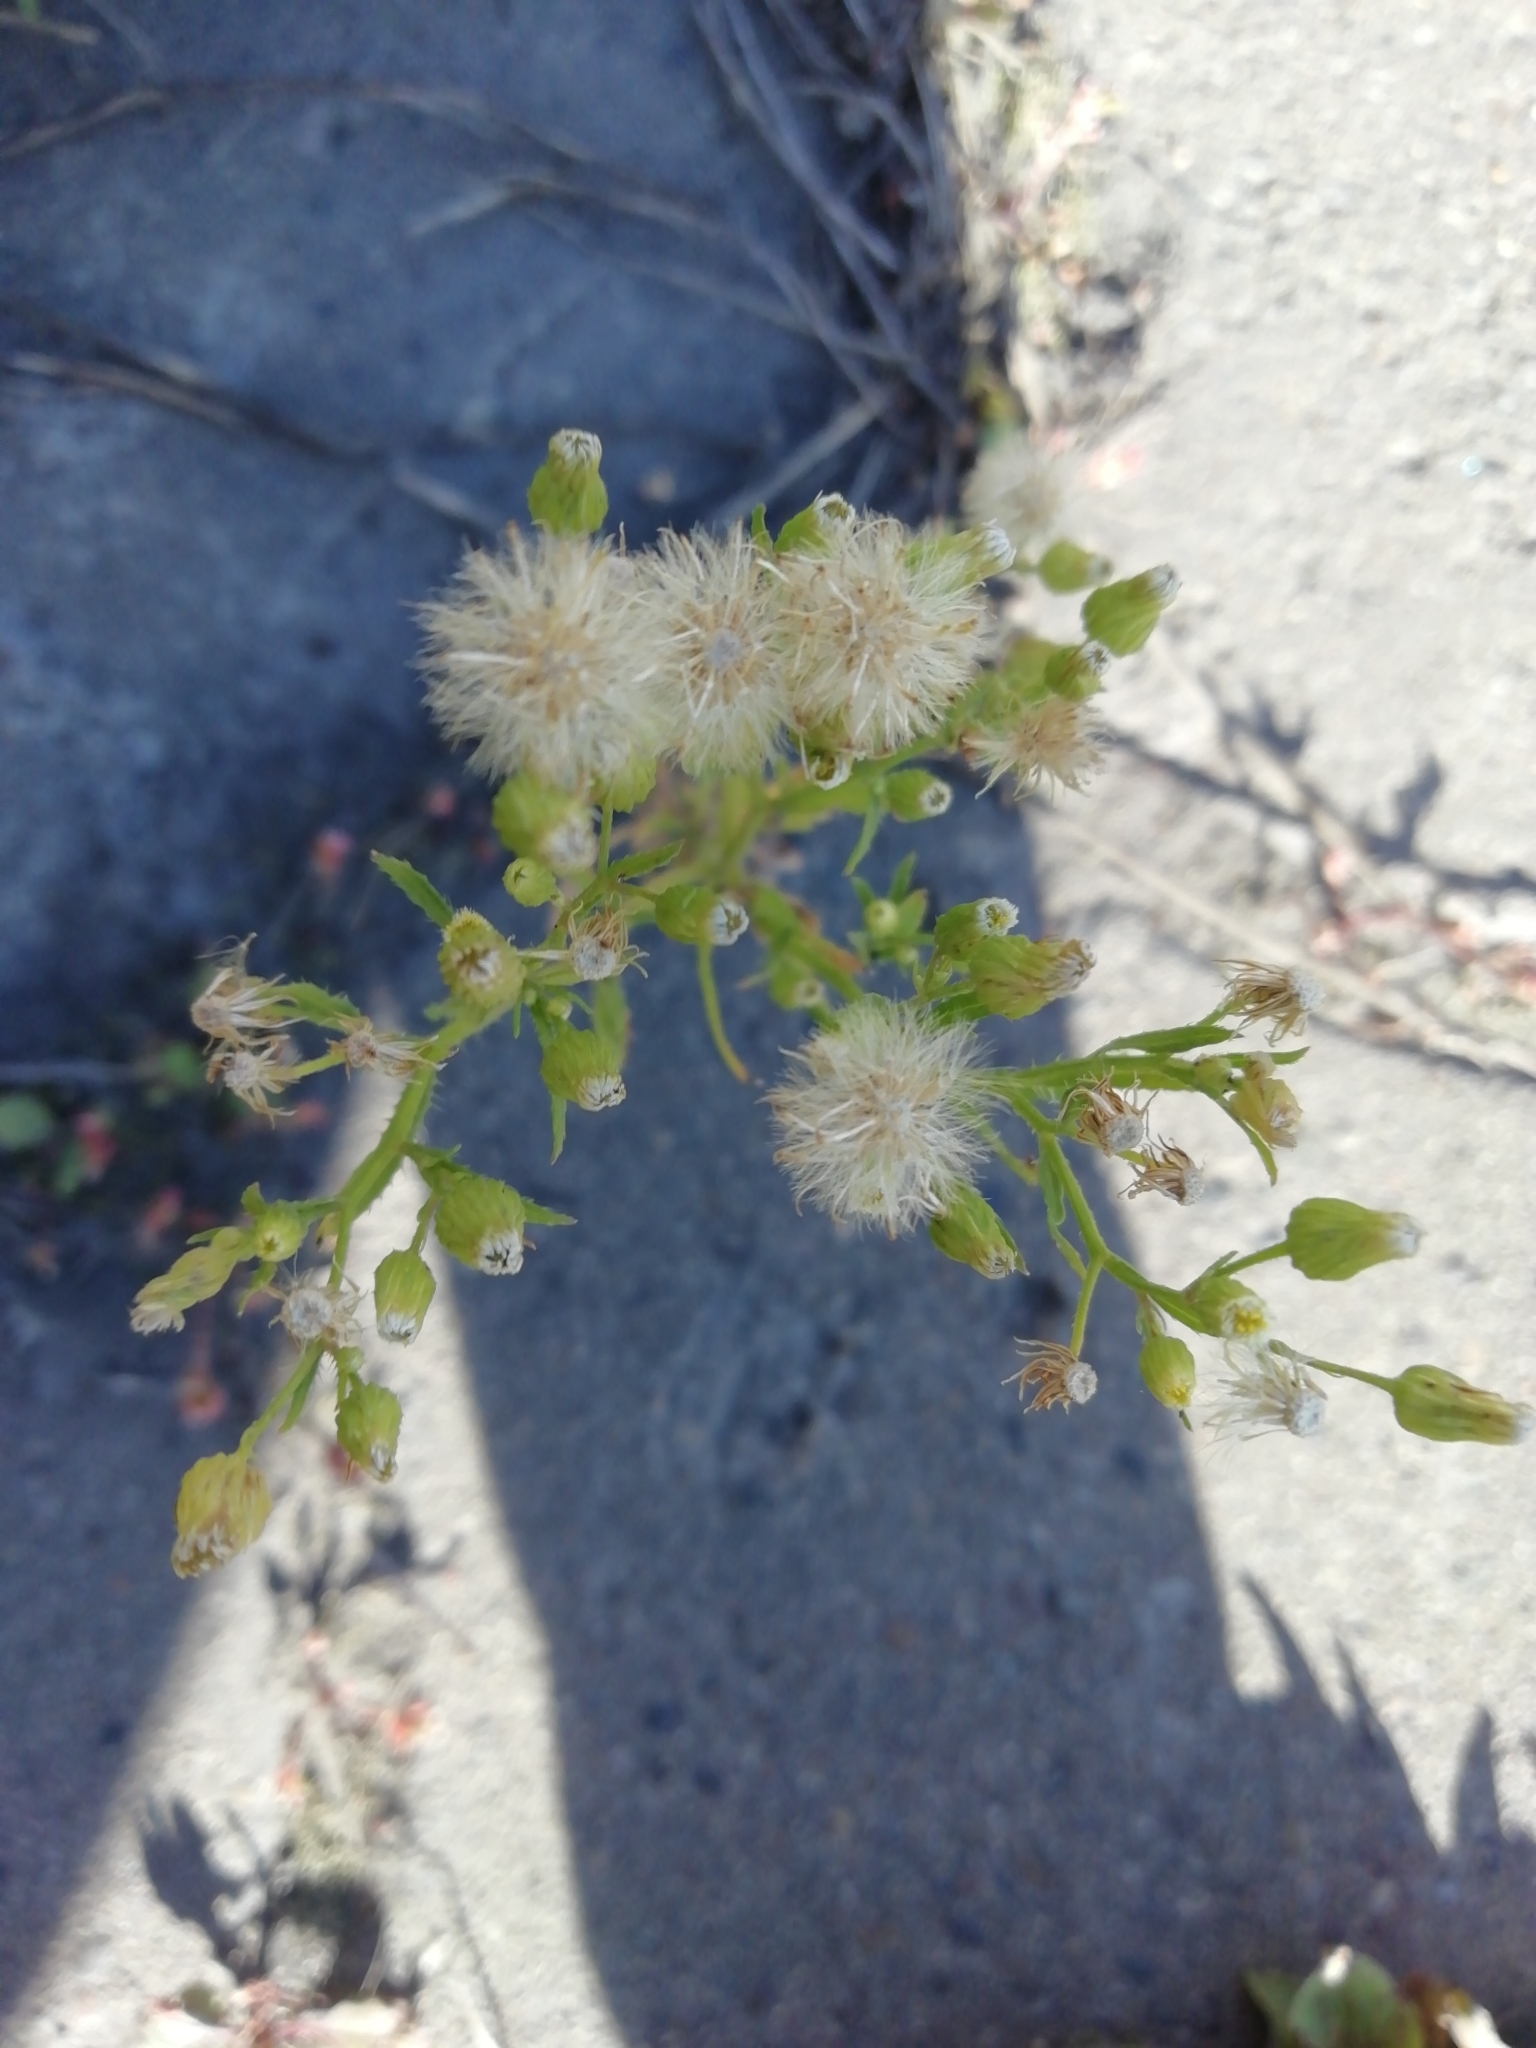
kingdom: Plantae
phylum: Tracheophyta
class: Magnoliopsida
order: Asterales
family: Asteraceae
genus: Erigeron
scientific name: Erigeron canadensis
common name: Canadian fleabane
